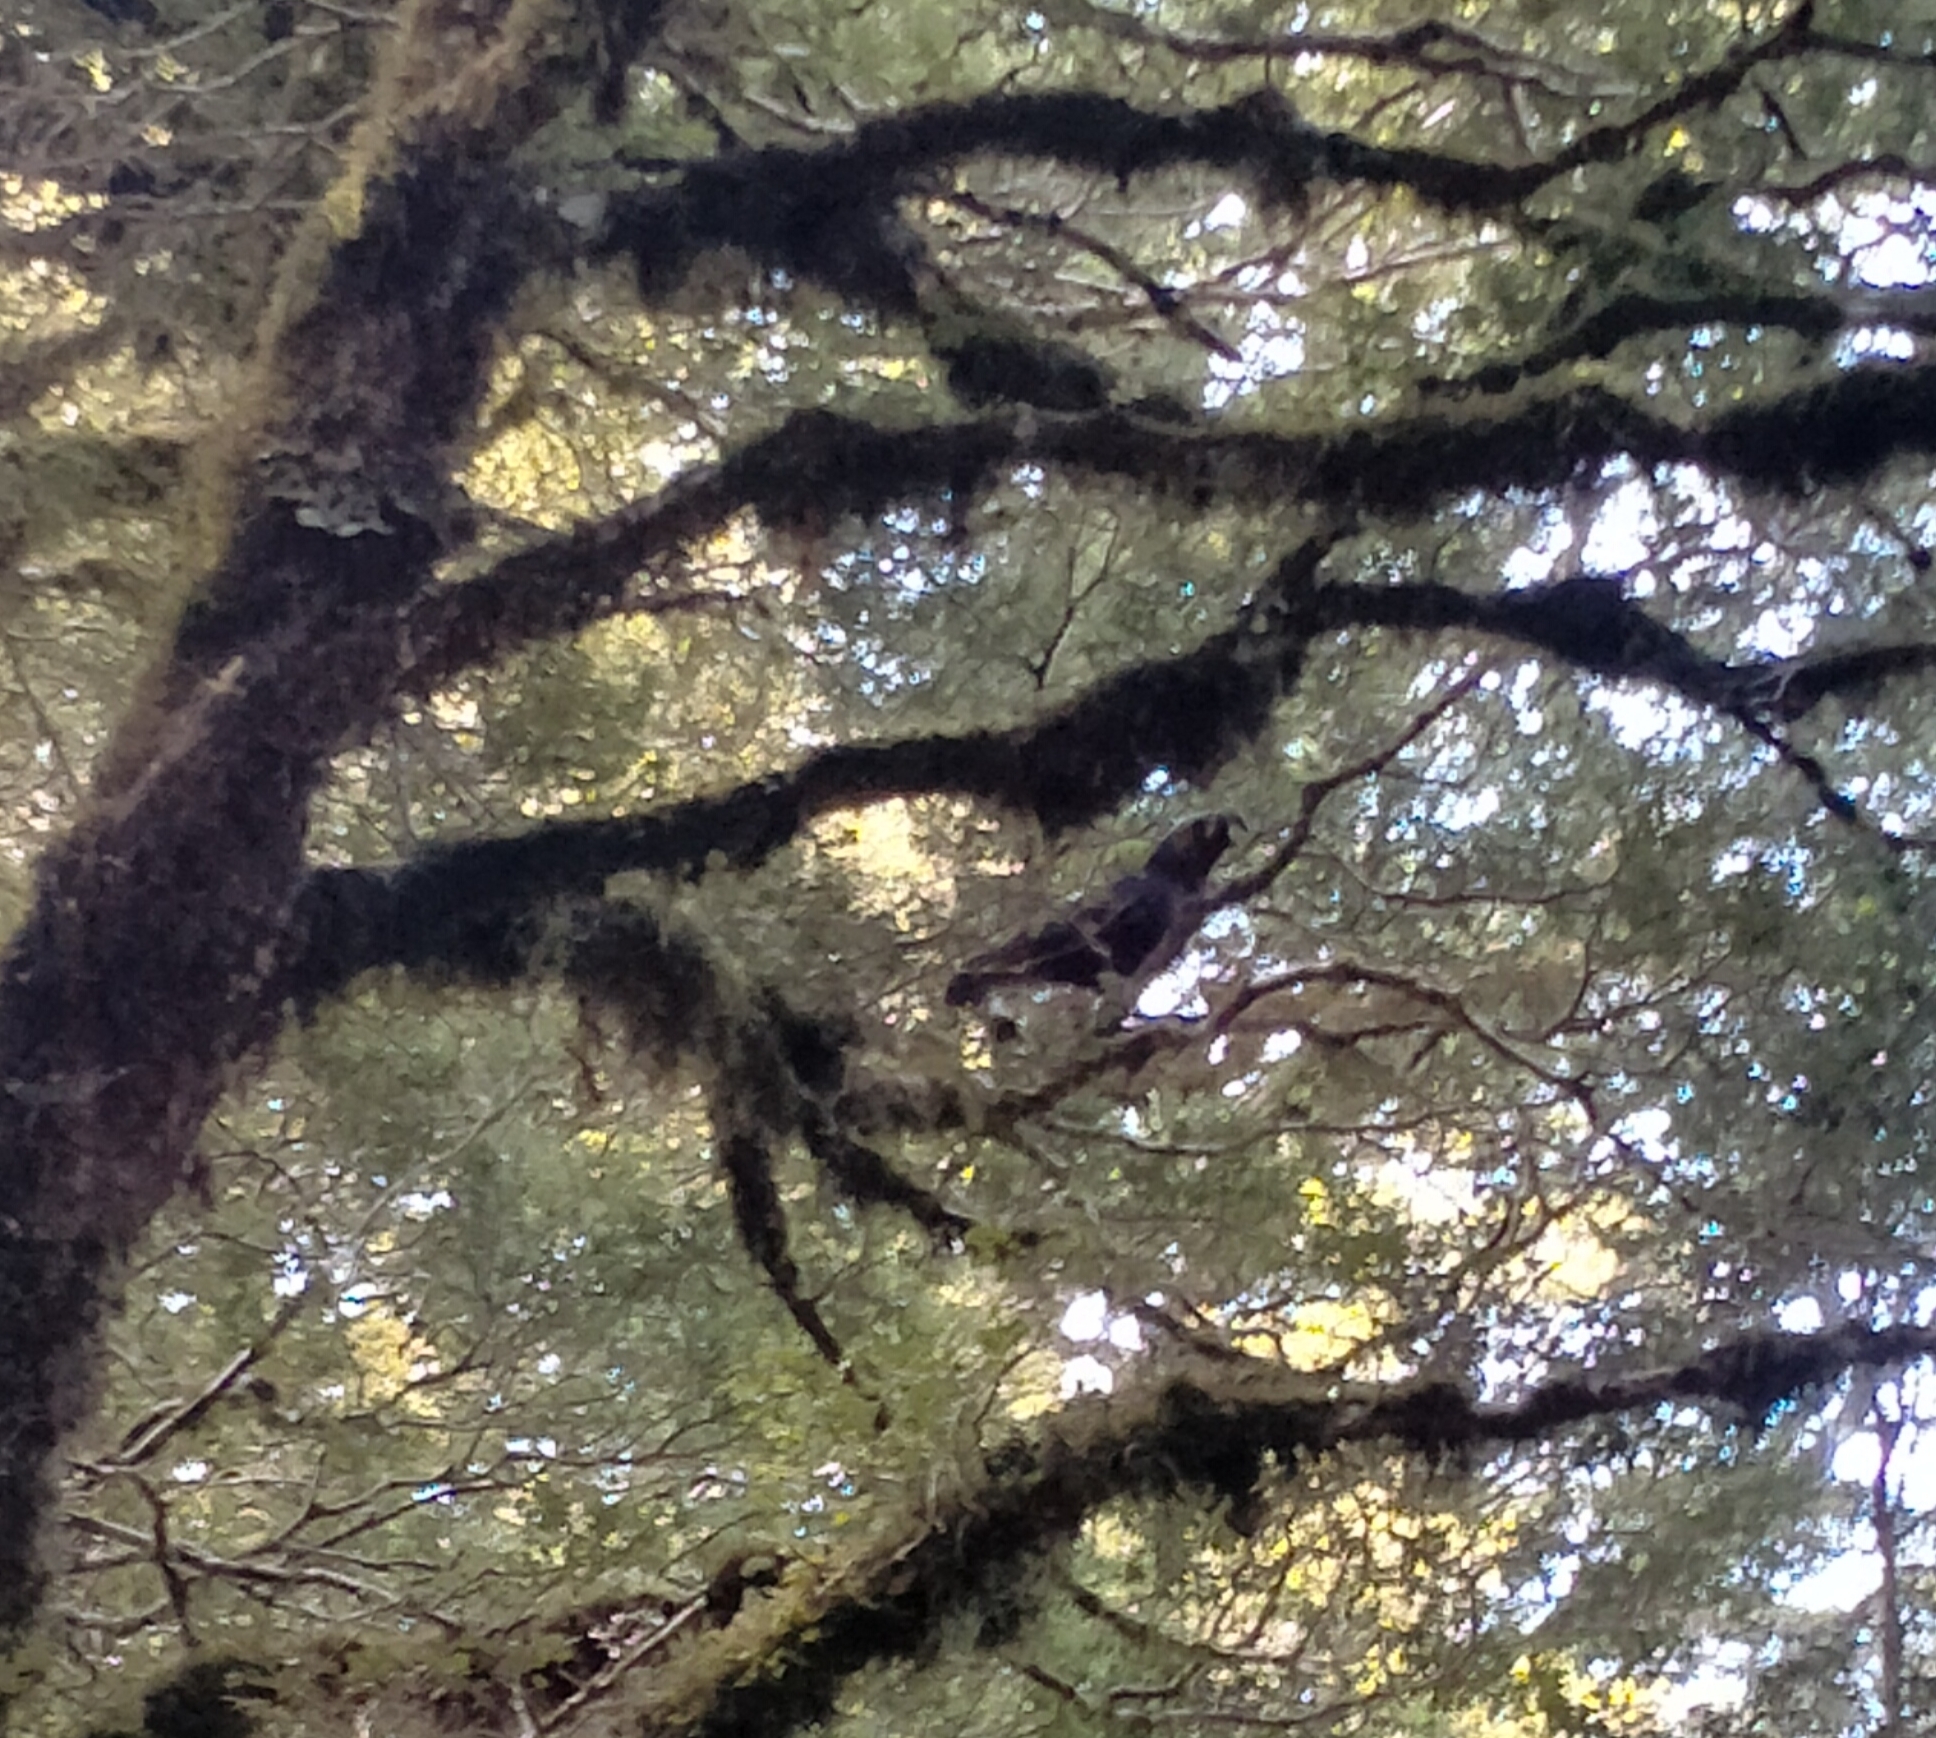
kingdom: Animalia
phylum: Chordata
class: Aves
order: Psittaciformes
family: Psittacidae
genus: Nestor
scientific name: Nestor meridionalis
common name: New zealand kaka
